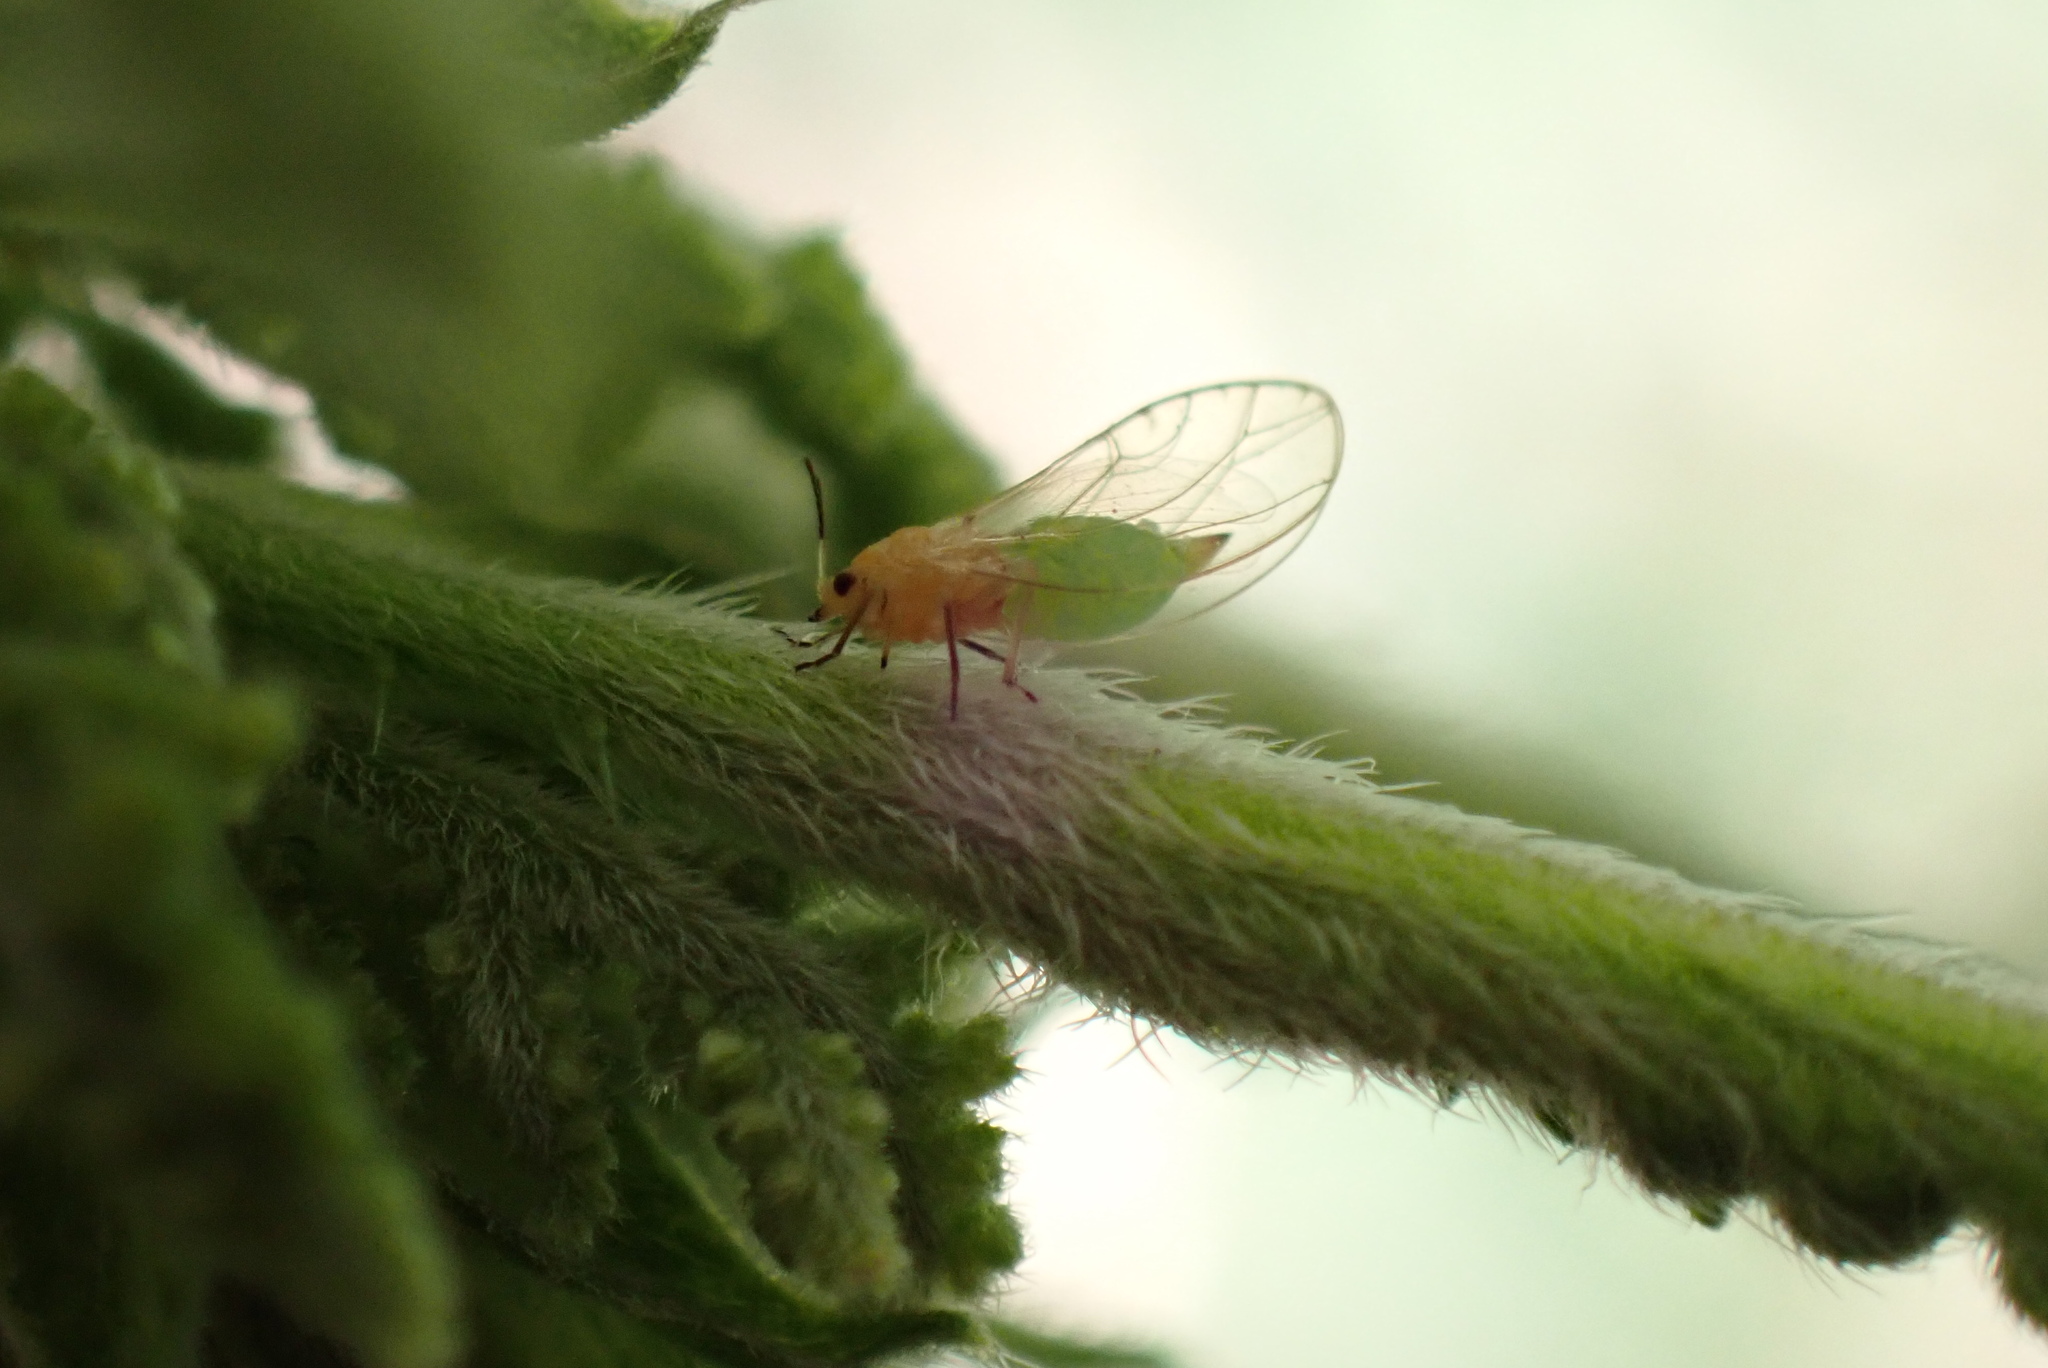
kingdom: Animalia
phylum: Arthropoda
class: Insecta
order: Hemiptera
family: Triozidae
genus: Trioza
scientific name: Trioza urticae
